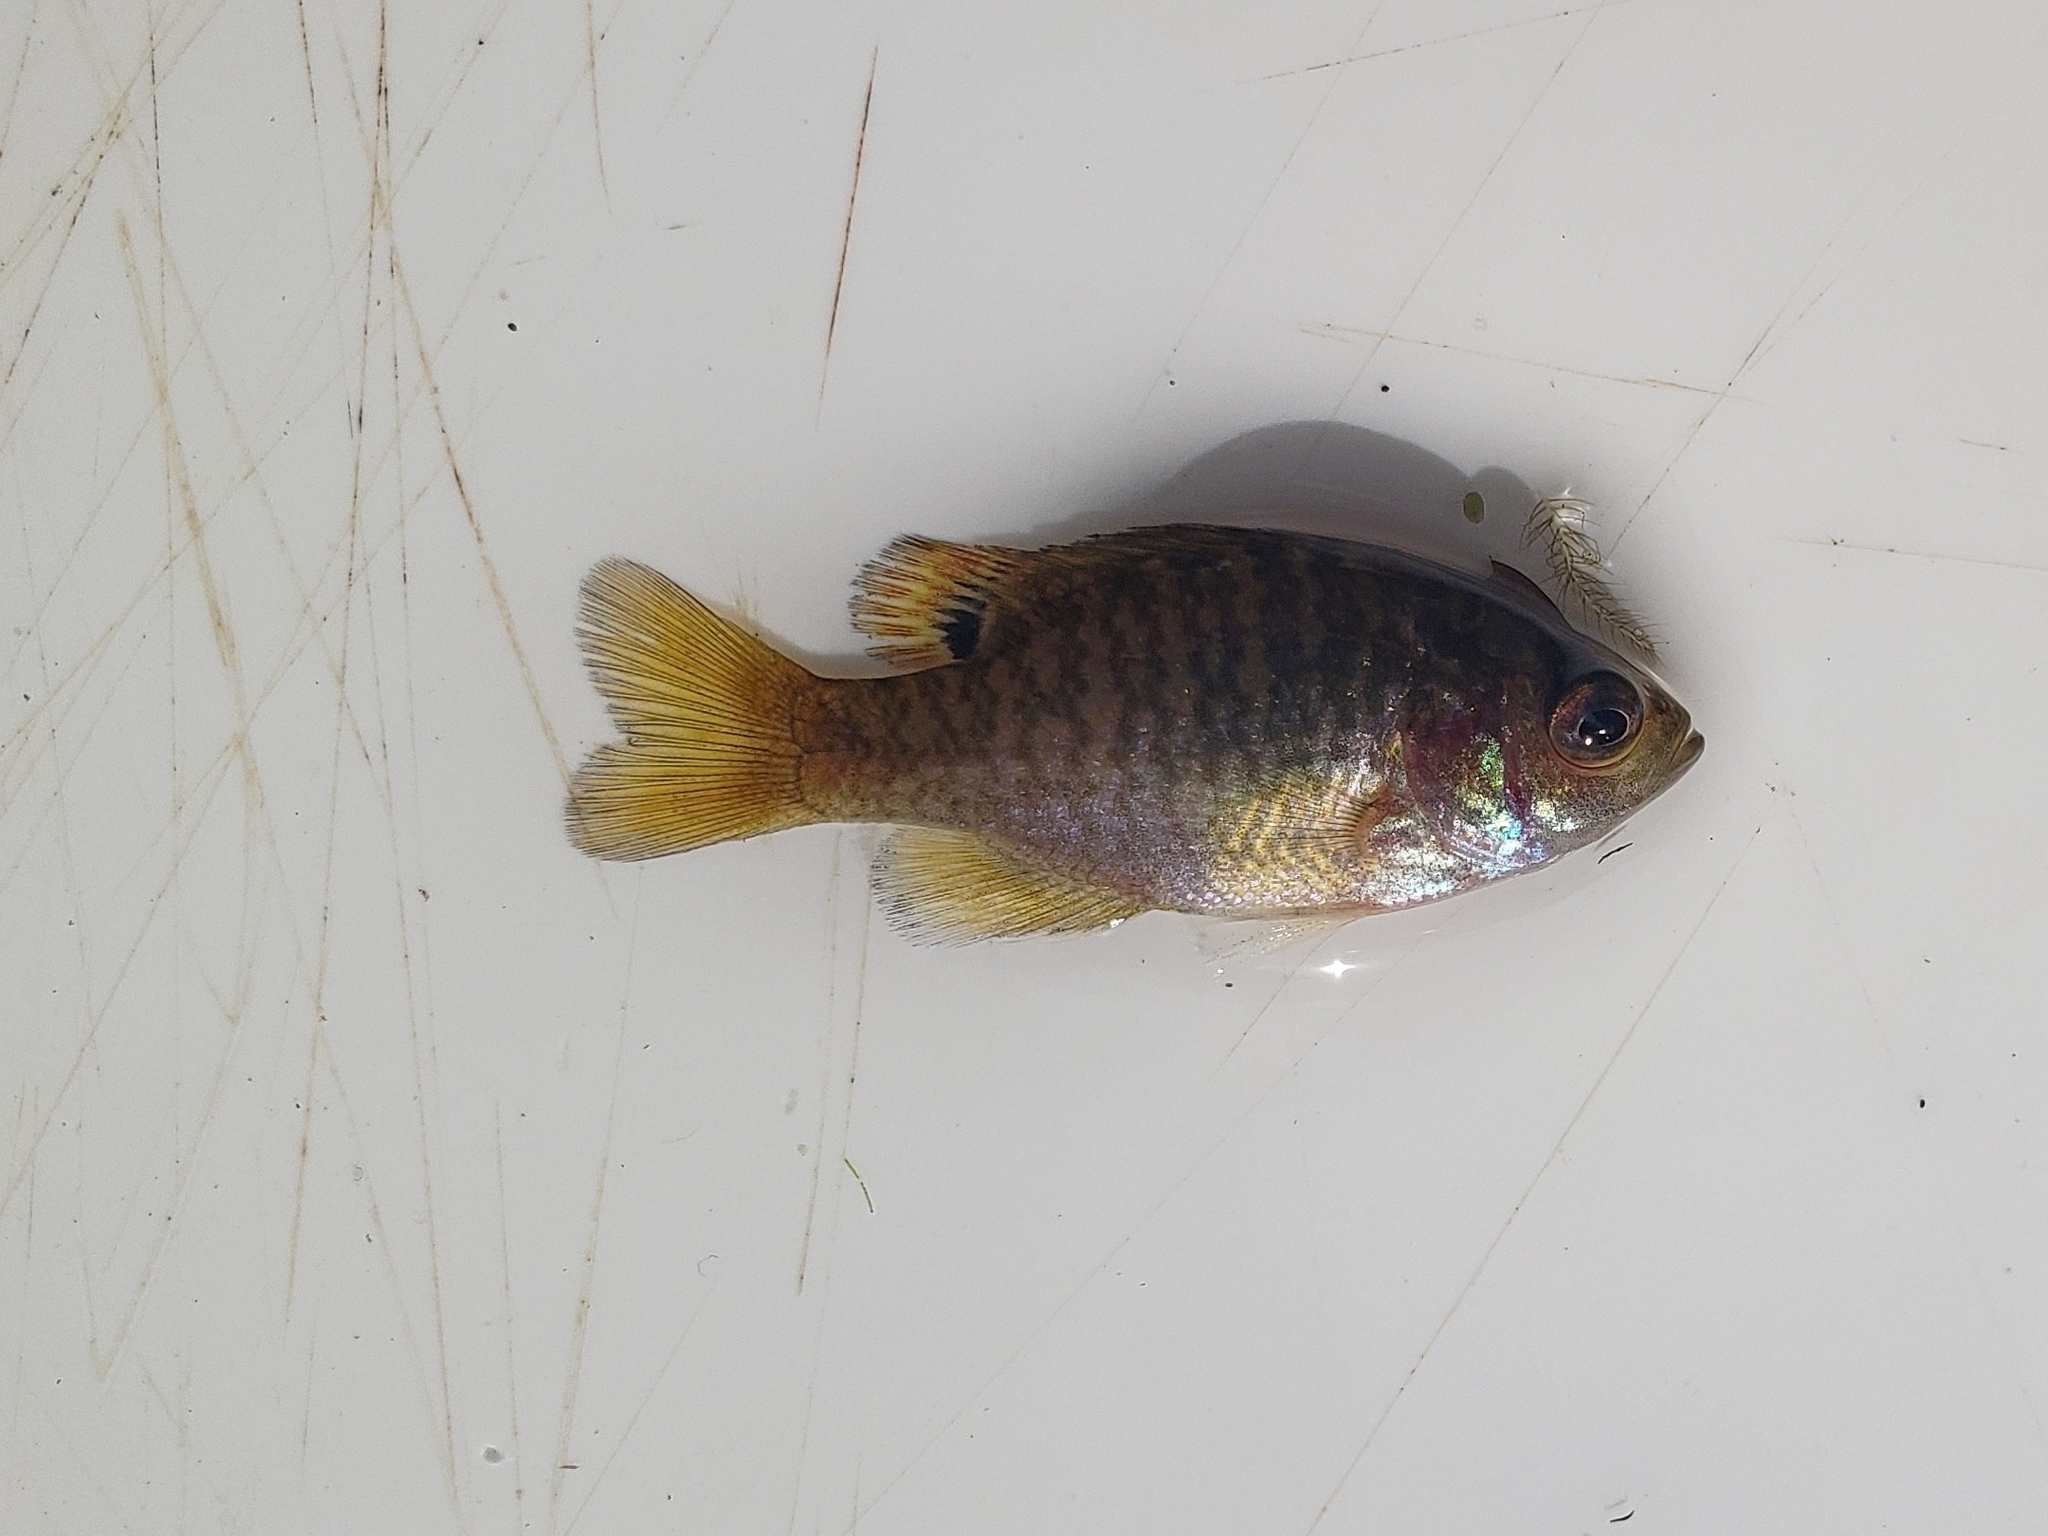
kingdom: Animalia
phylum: Chordata
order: Perciformes
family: Centrarchidae
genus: Lepomis
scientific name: Lepomis symmetricus
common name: Bantam sunfish
